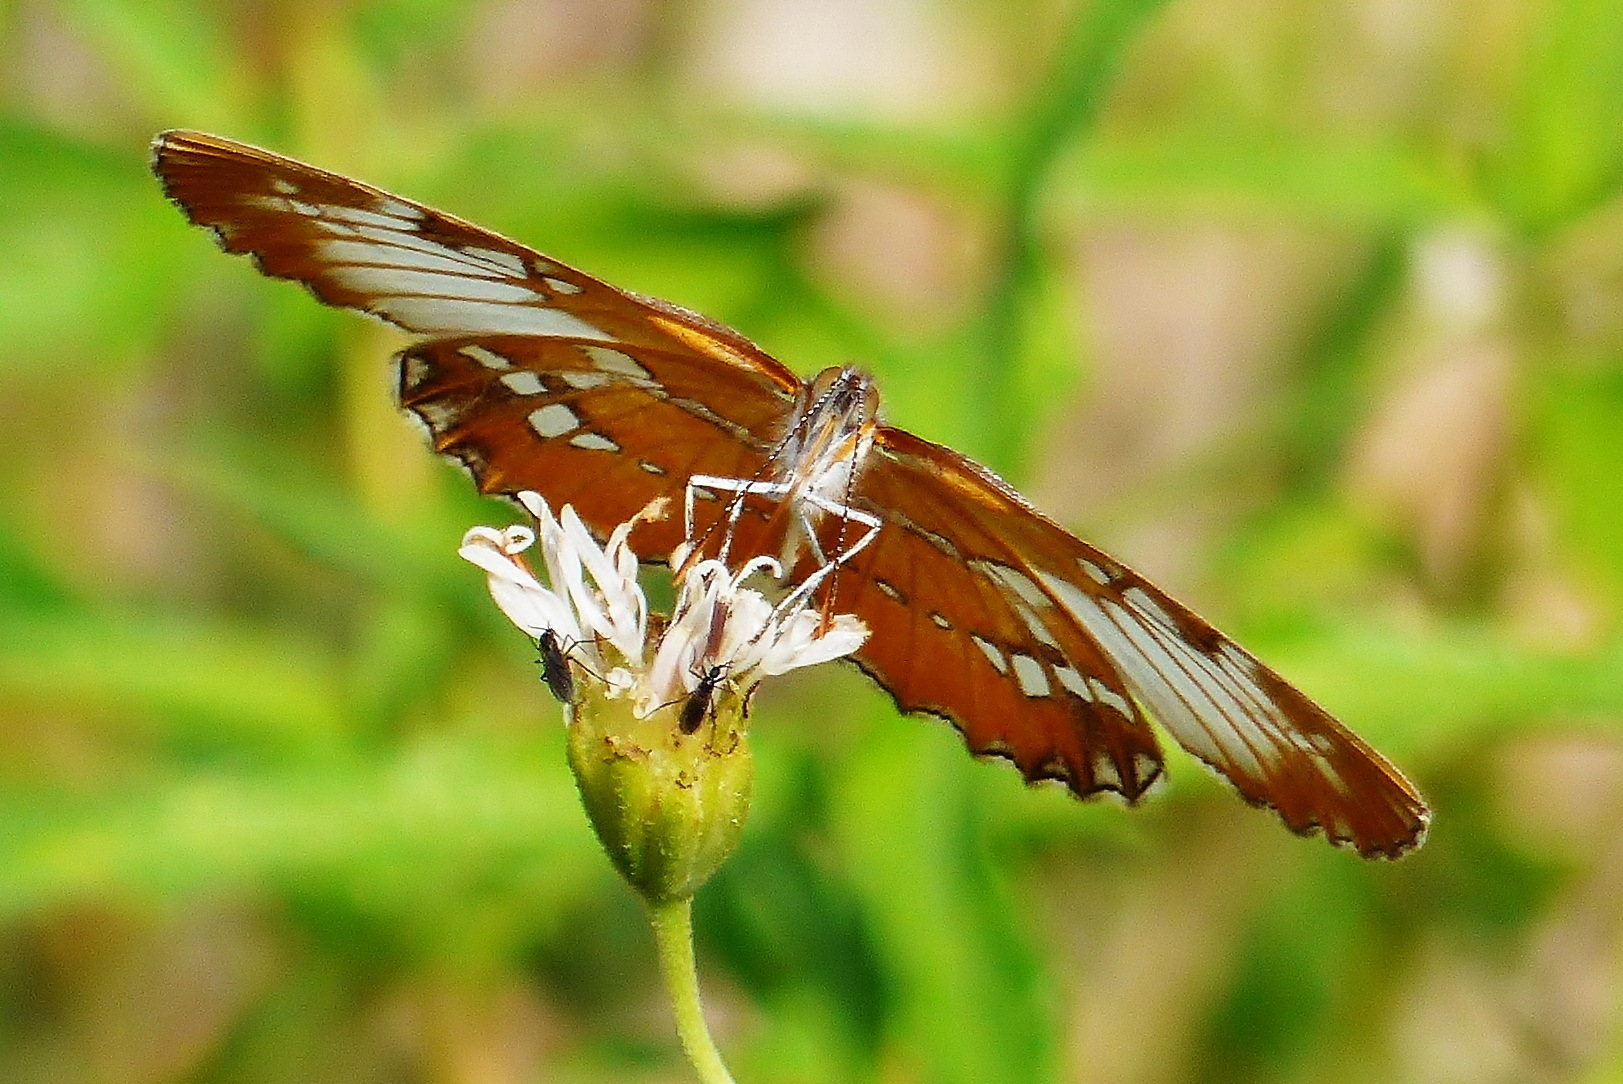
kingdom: Animalia
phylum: Arthropoda
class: Insecta
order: Lepidoptera
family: Nymphalidae
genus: Mestra
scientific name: Mestra amymone
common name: Common mestra
